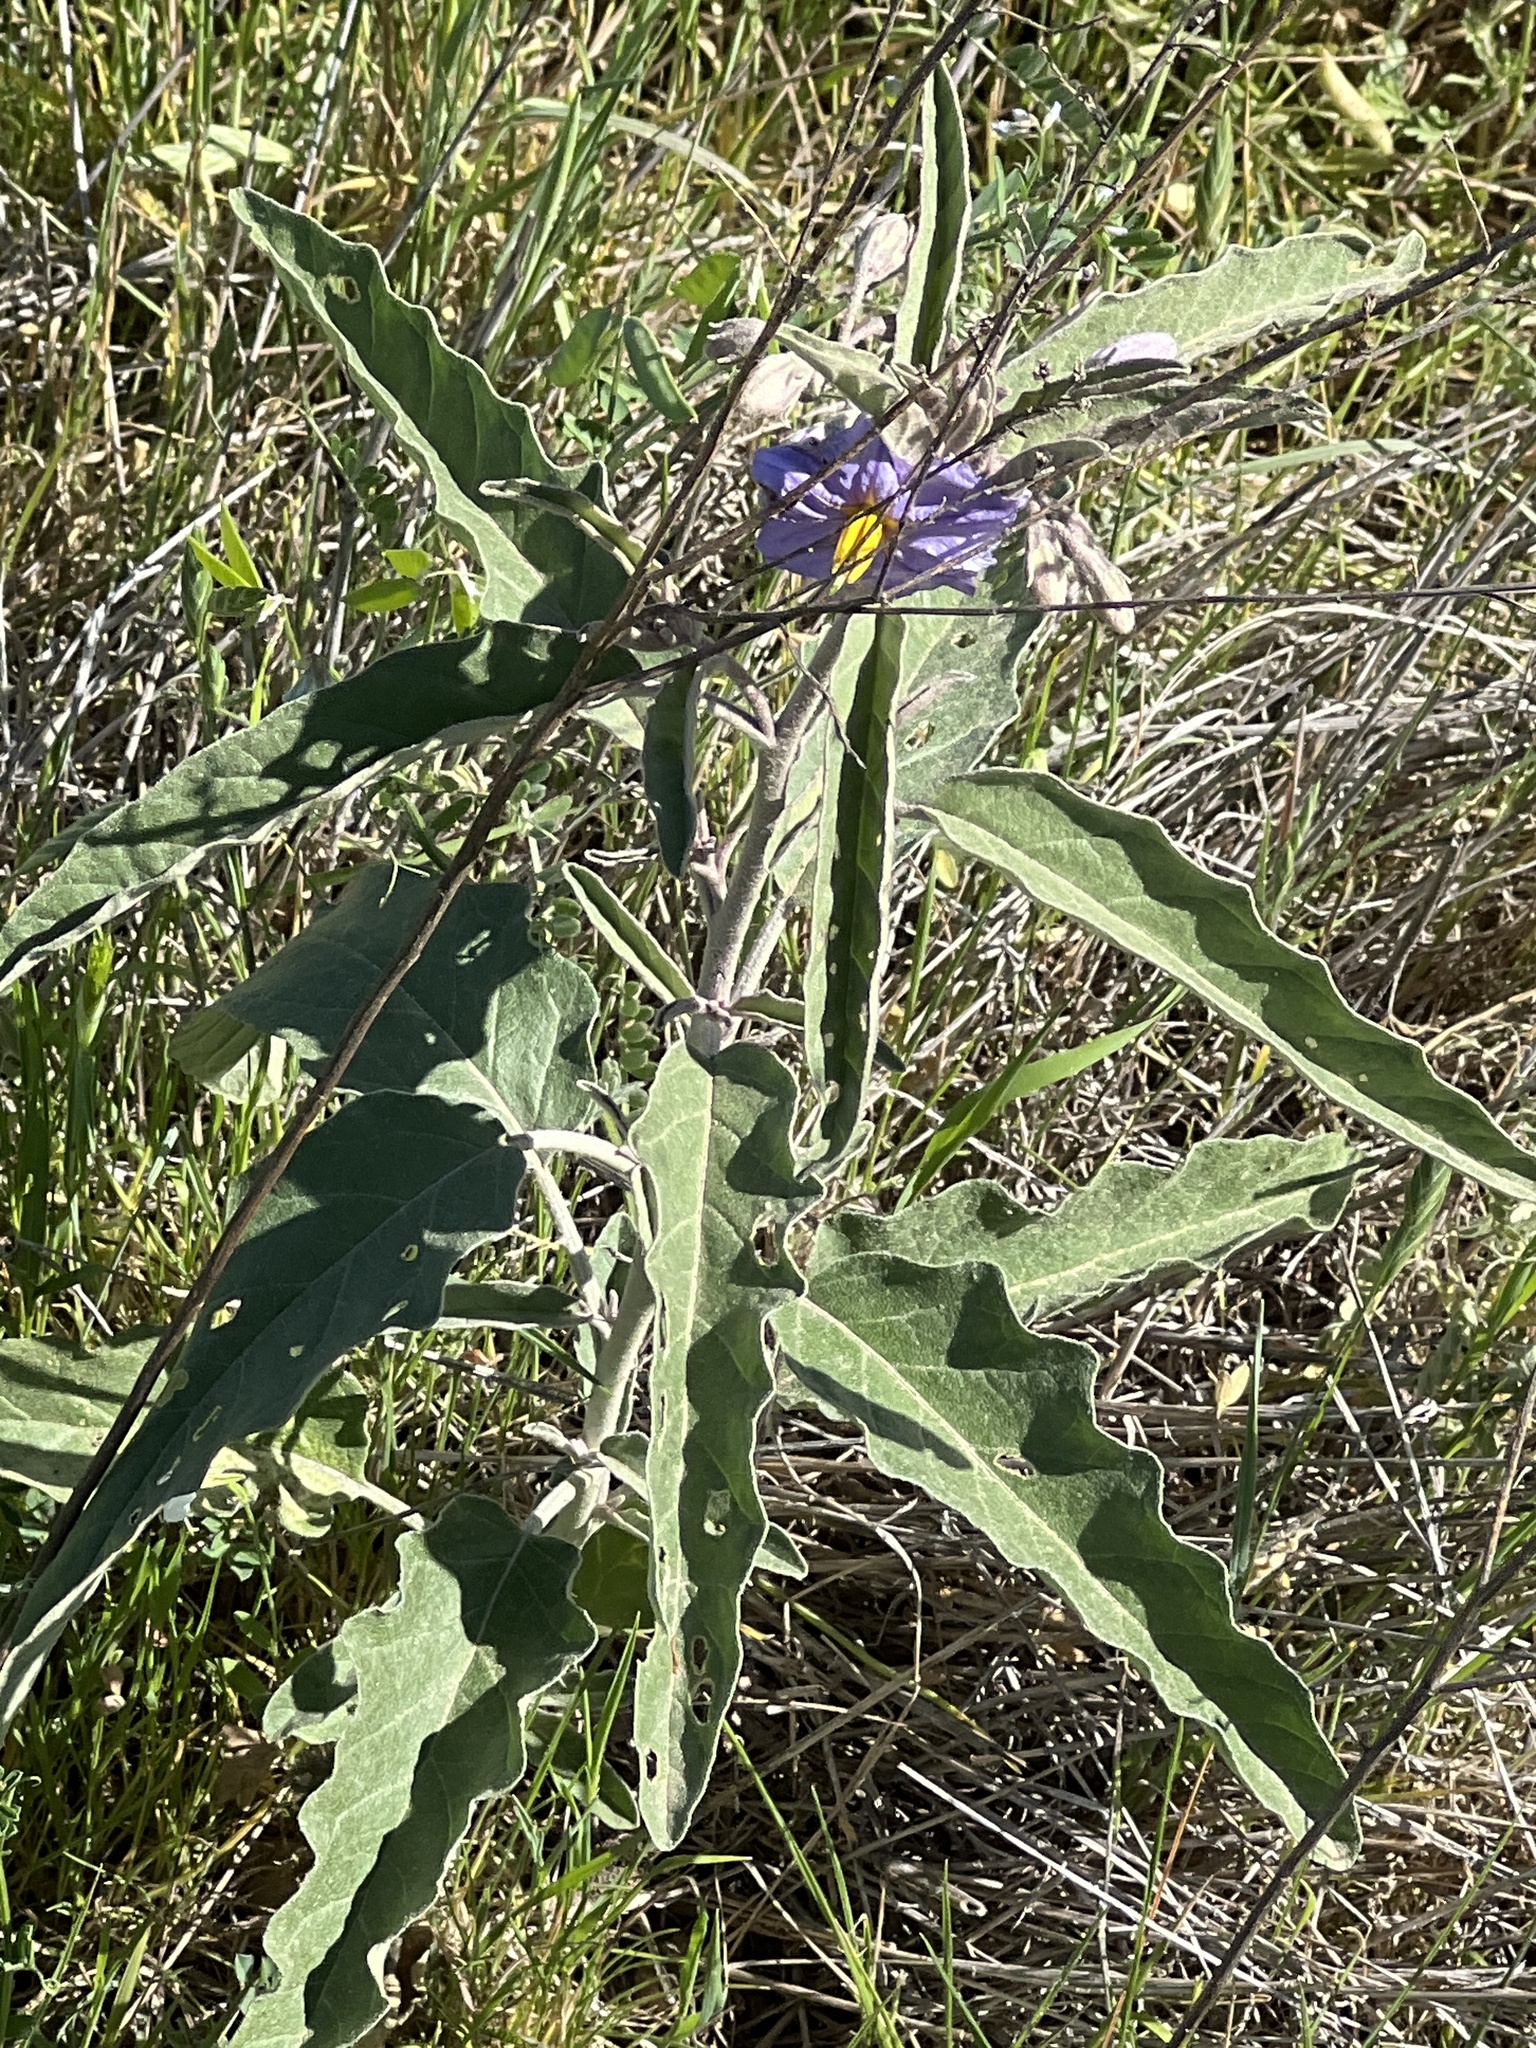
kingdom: Plantae
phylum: Tracheophyta
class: Magnoliopsida
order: Solanales
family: Solanaceae
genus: Solanum
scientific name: Solanum elaeagnifolium
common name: Silverleaf nightshade
